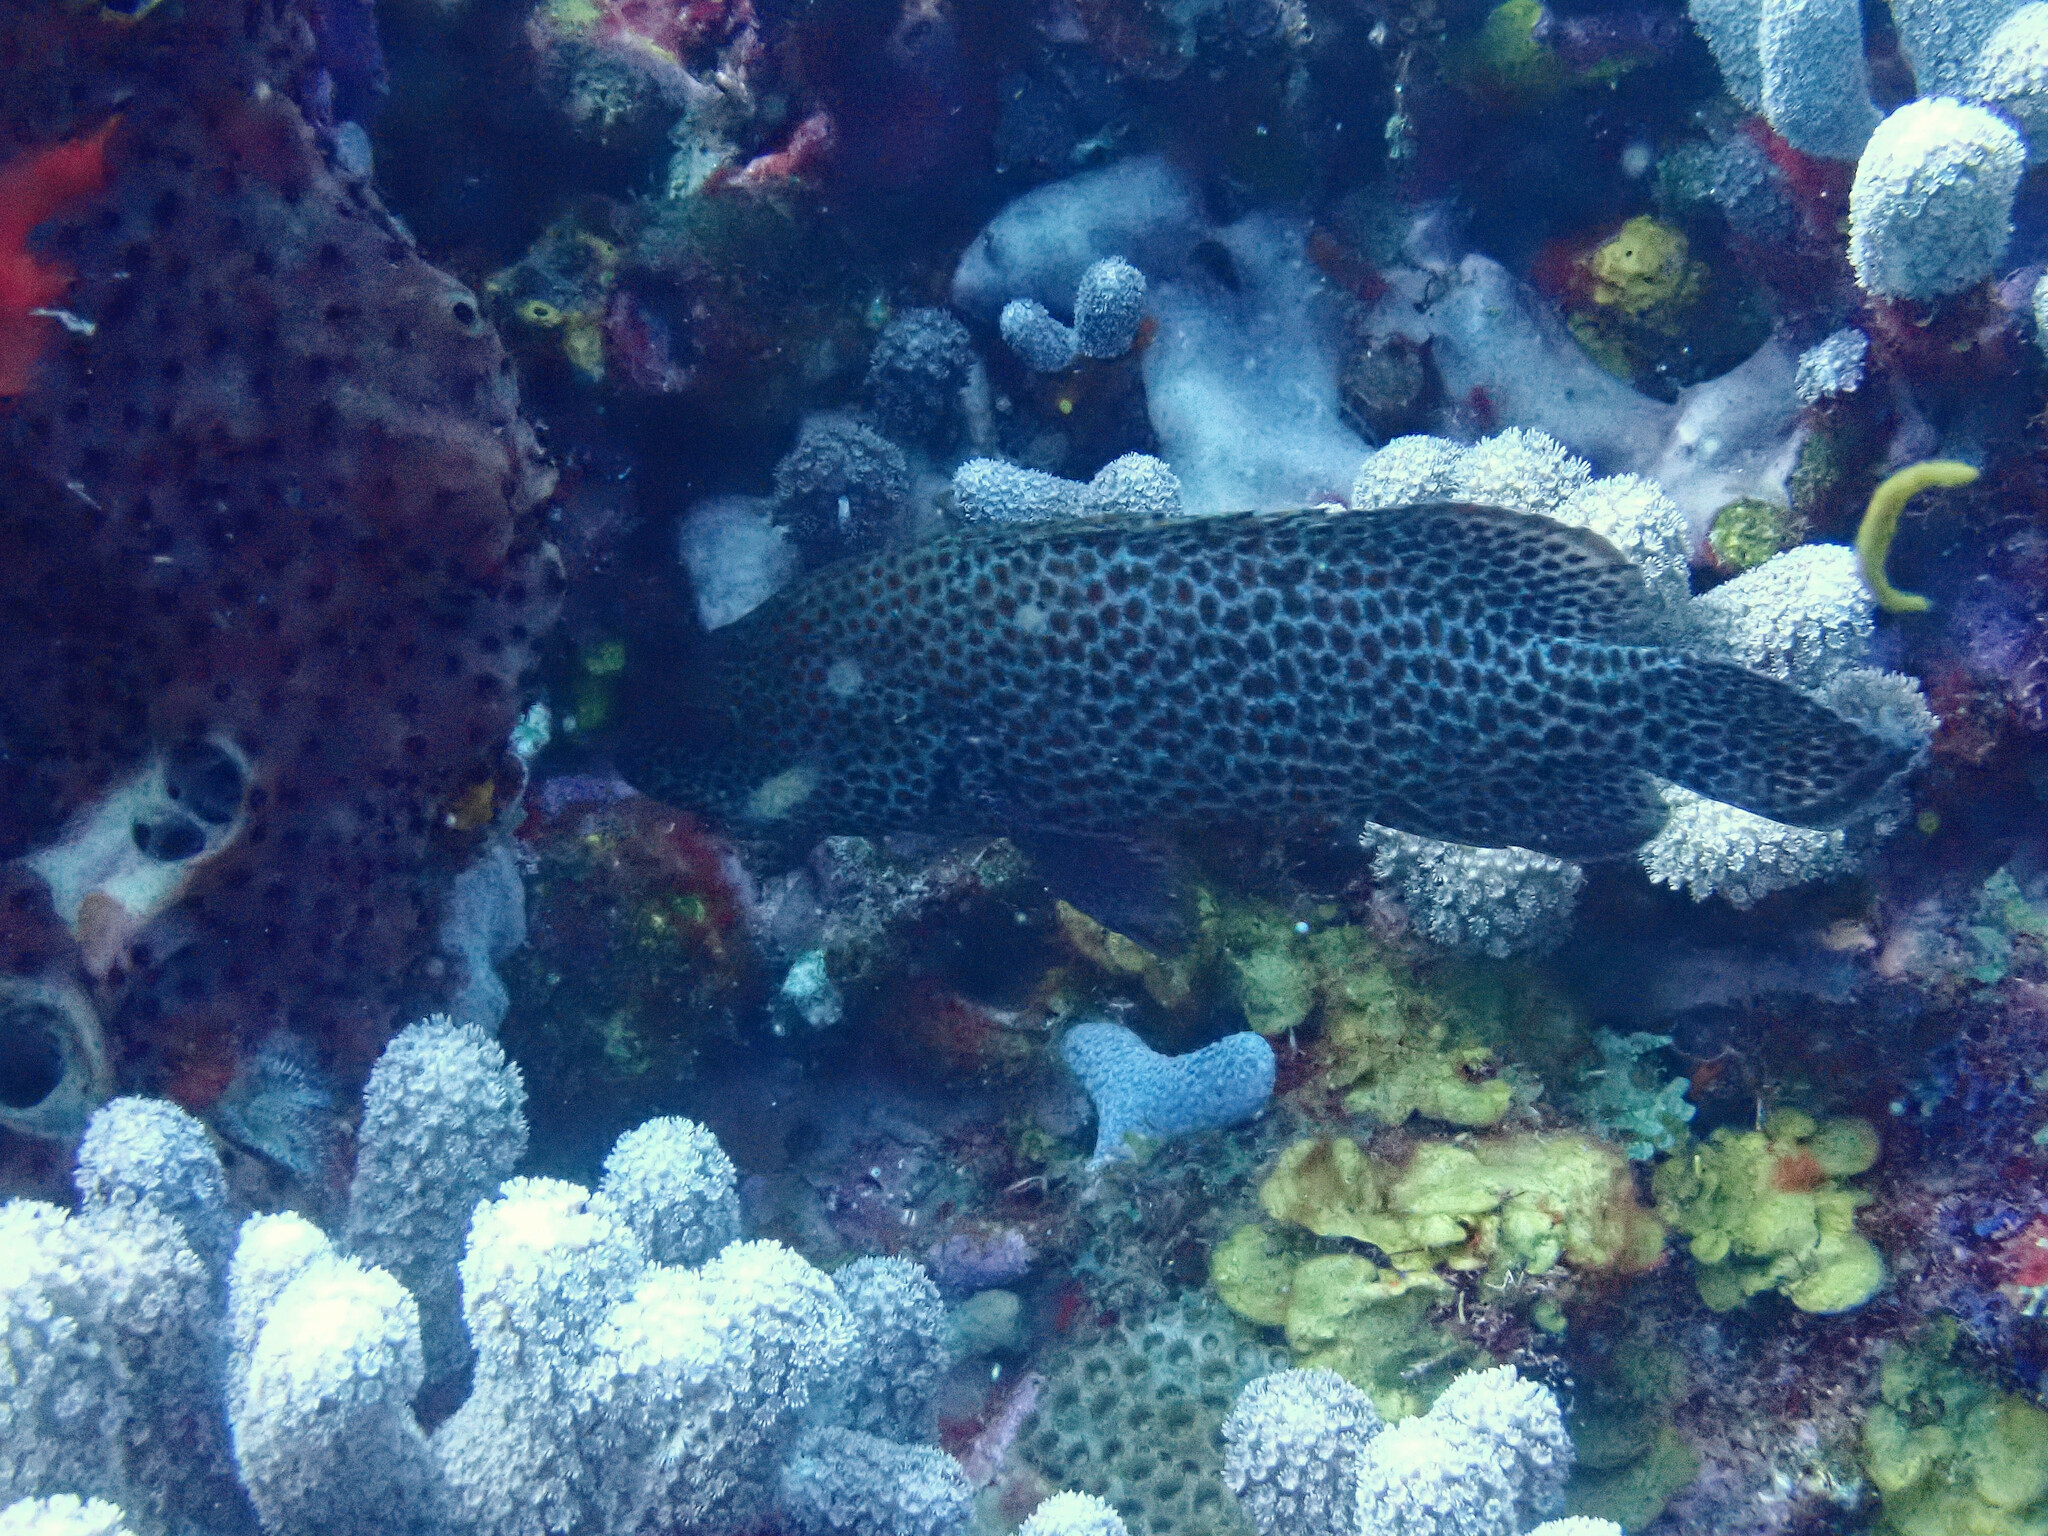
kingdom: Animalia
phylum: Chordata
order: Perciformes
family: Serranidae
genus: Cephalopholis
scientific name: Cephalopholis cruentata
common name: Graysby
